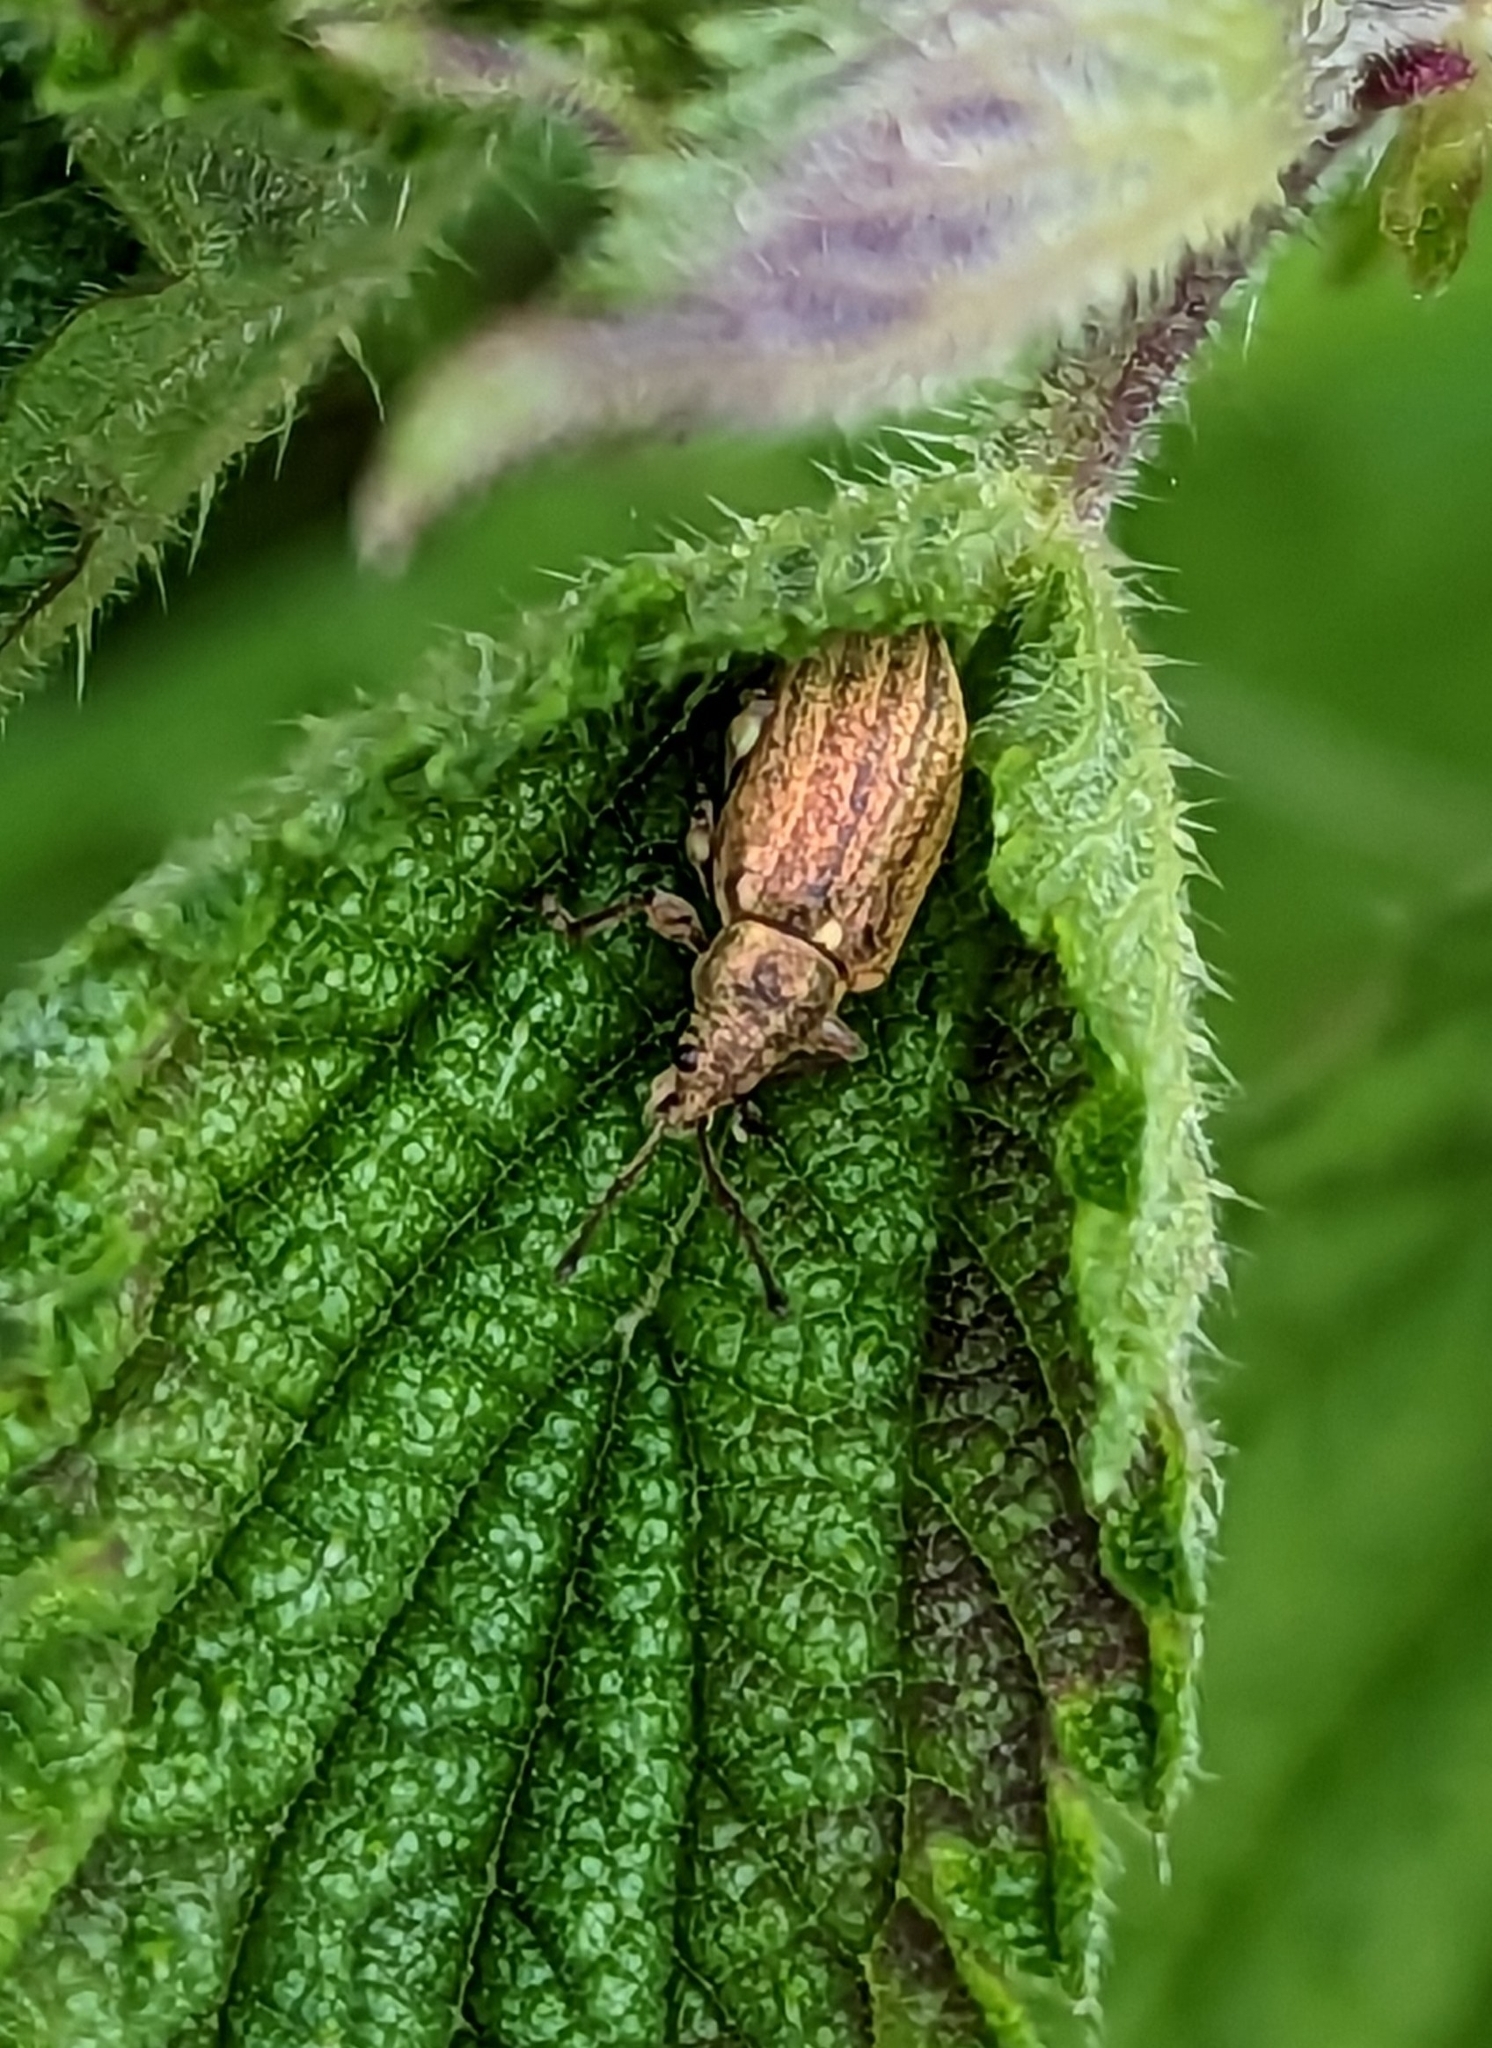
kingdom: Animalia
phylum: Arthropoda
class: Insecta
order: Coleoptera
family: Curculionidae
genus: Phyllobius
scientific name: Phyllobius pyri
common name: Common leaf weevil
